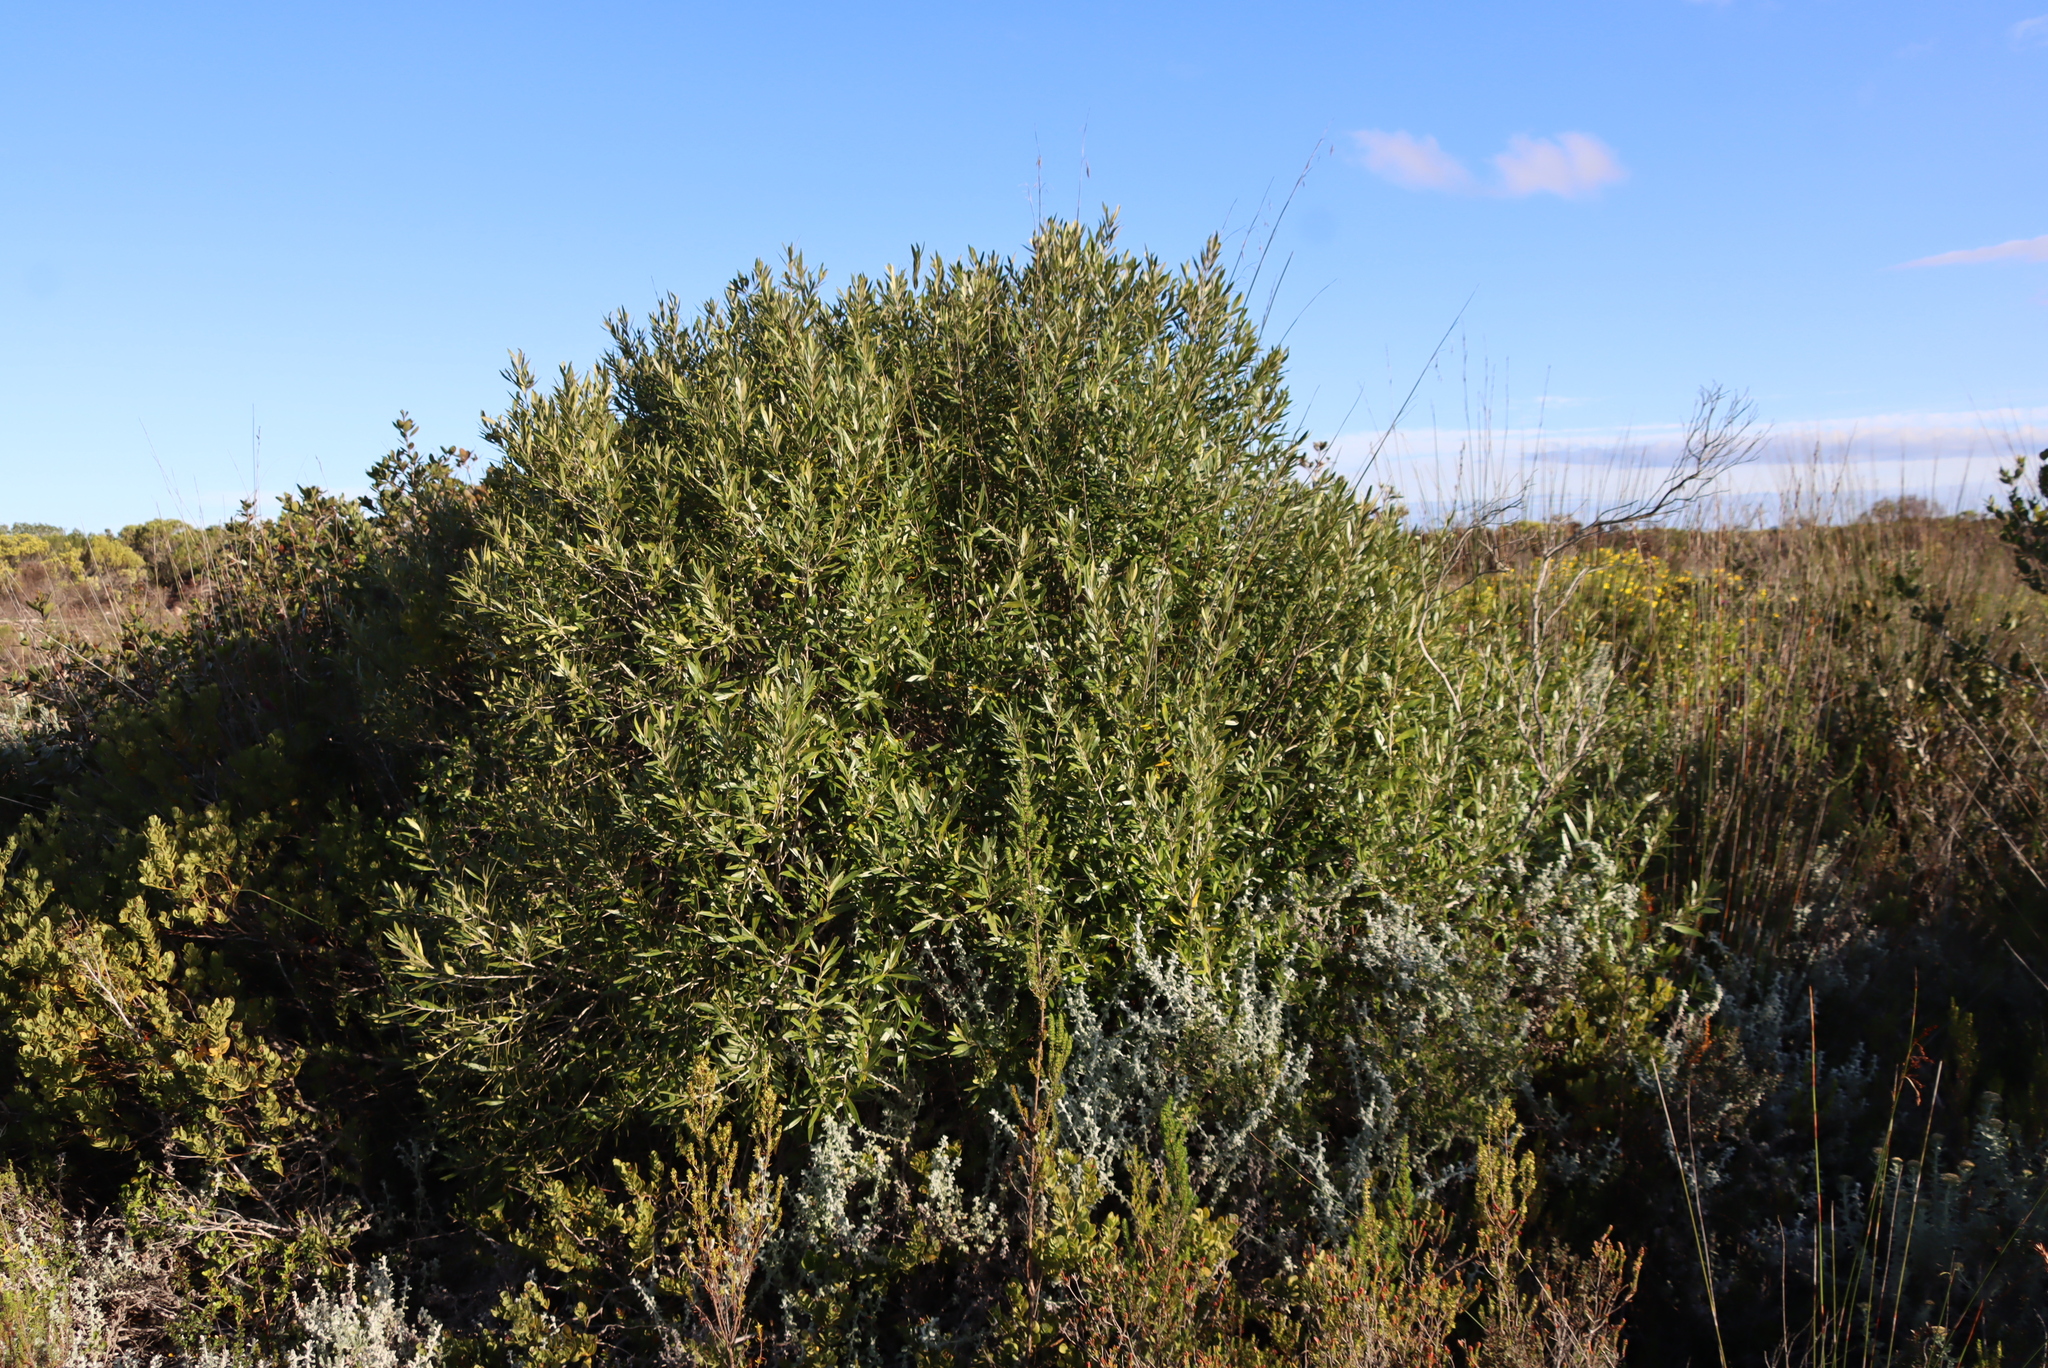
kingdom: Plantae
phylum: Tracheophyta
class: Magnoliopsida
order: Lamiales
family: Oleaceae
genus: Olea
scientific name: Olea europaea
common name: Olive
